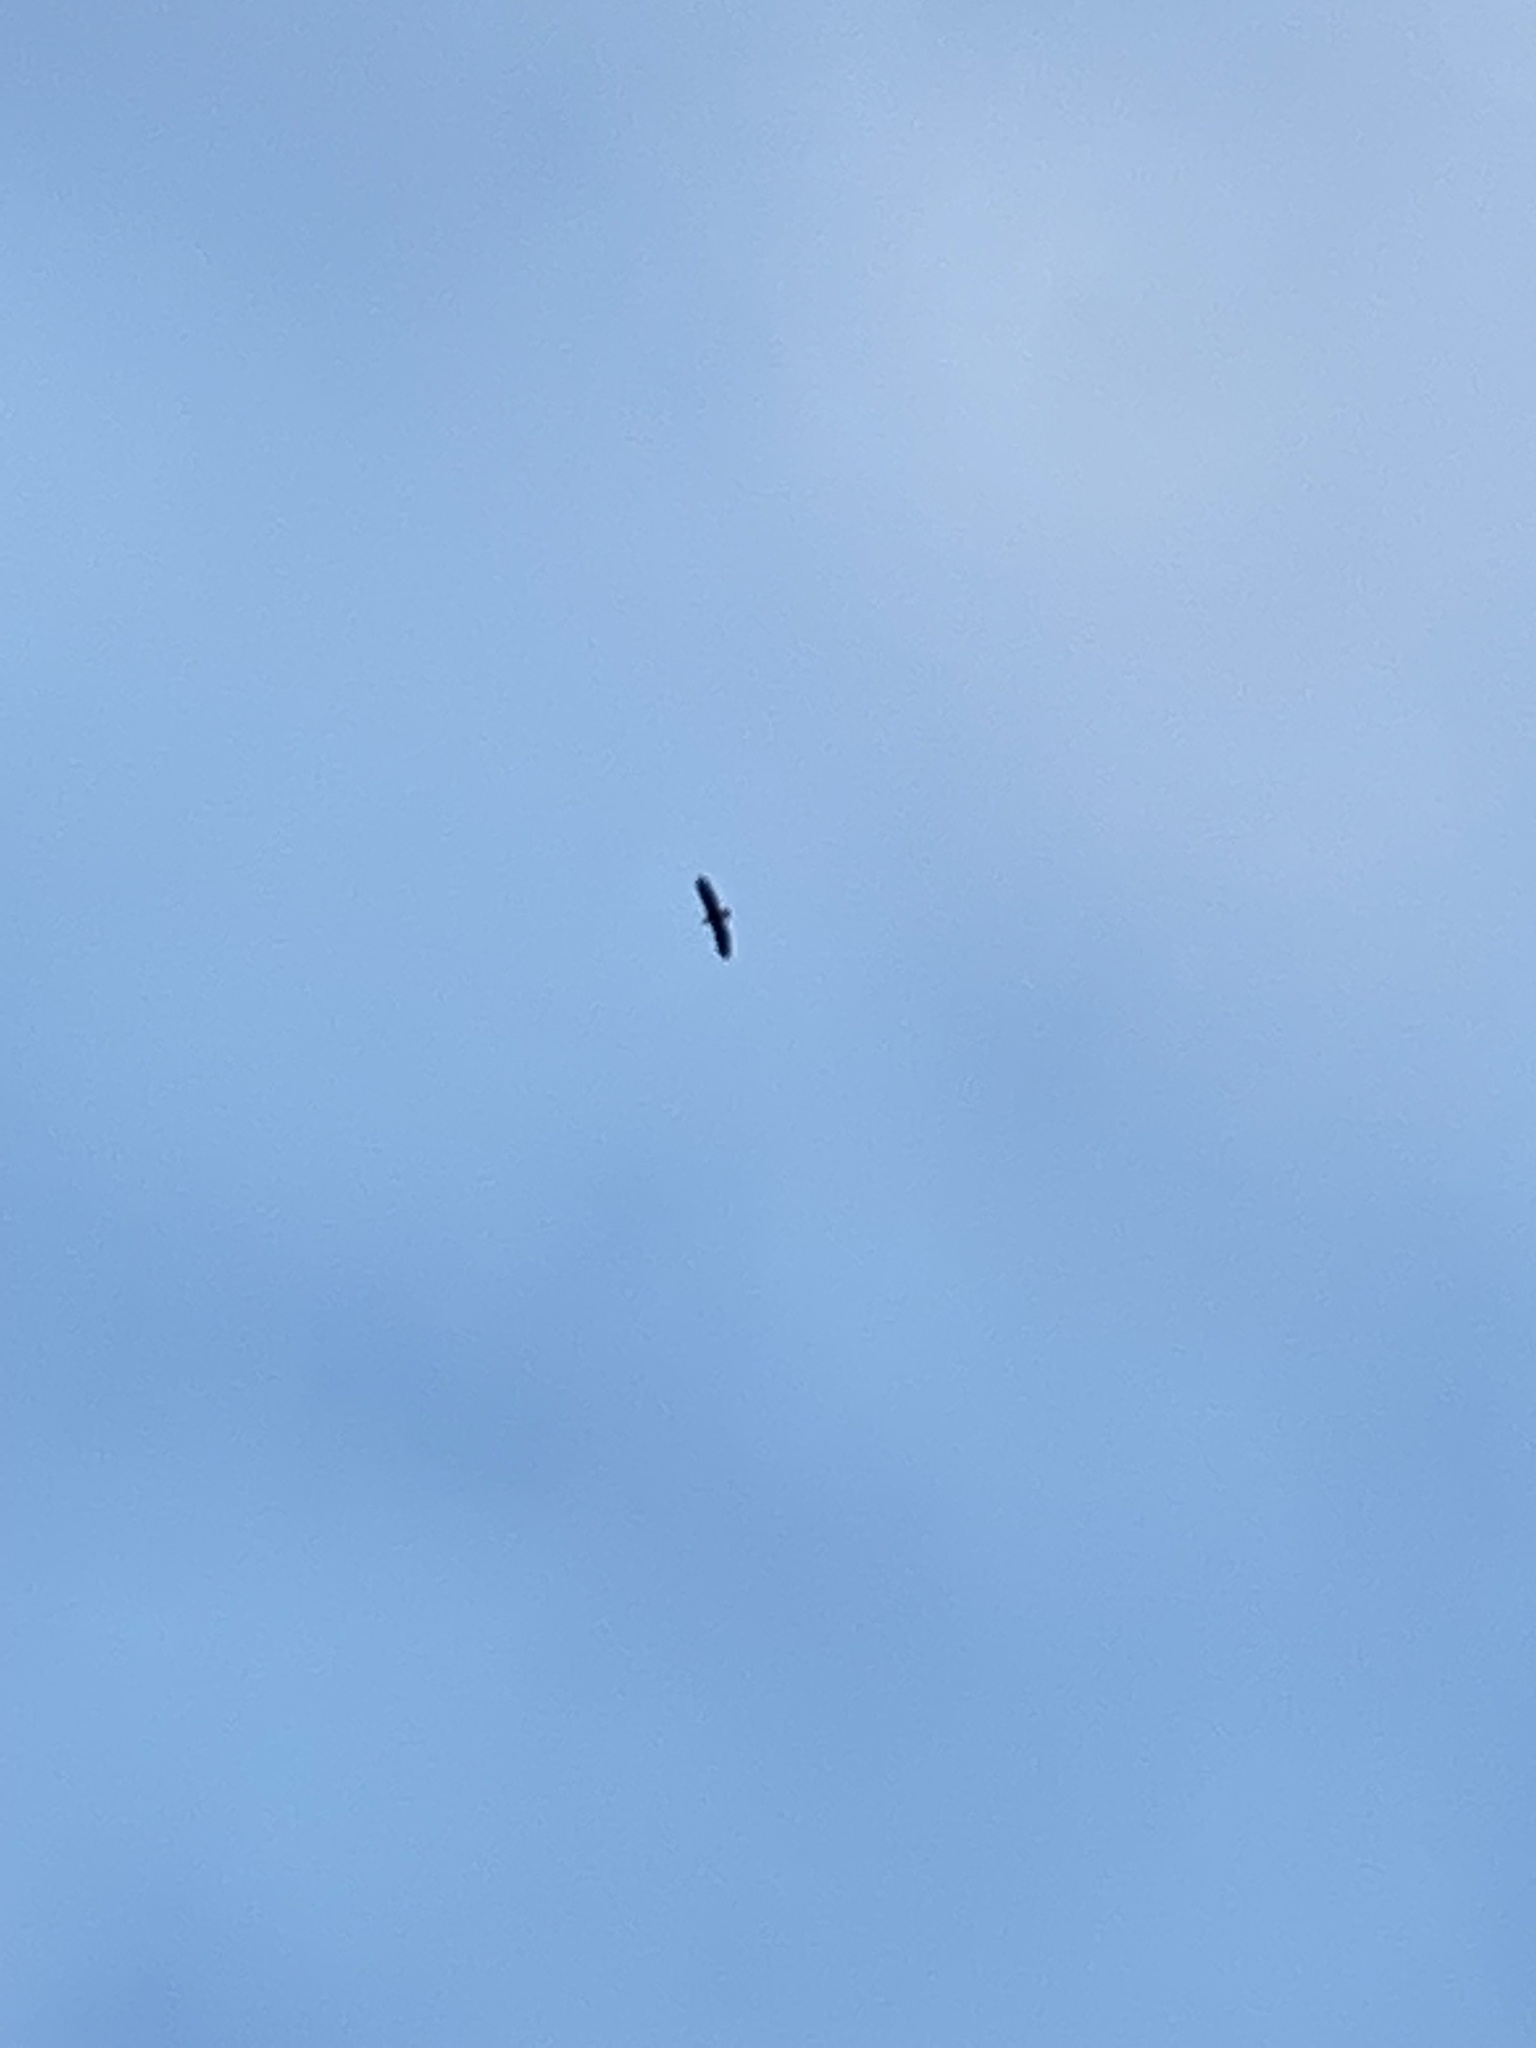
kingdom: Animalia
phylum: Chordata
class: Aves
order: Accipitriformes
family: Accipitridae
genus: Haliaeetus
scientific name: Haliaeetus albicilla
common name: White-tailed eagle
